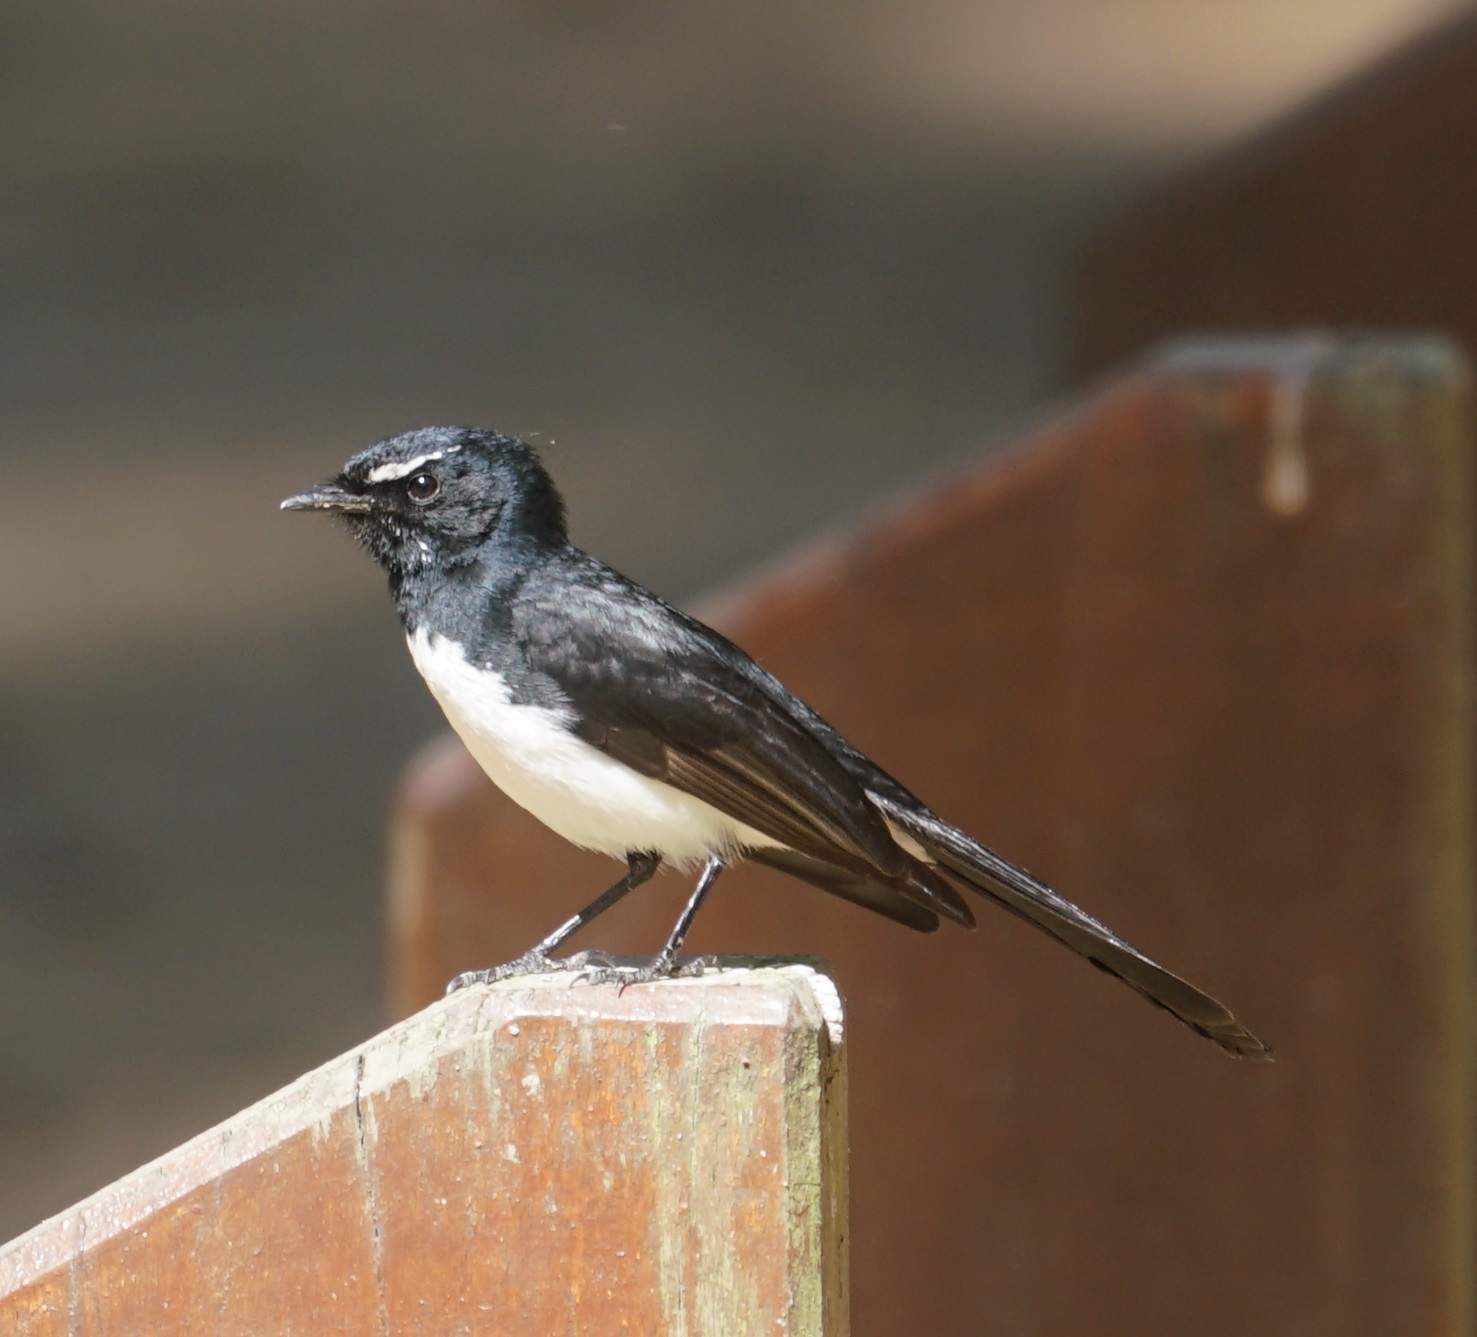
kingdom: Animalia
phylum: Chordata
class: Aves
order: Passeriformes
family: Rhipiduridae
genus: Rhipidura
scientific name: Rhipidura leucophrys
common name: Willie wagtail
